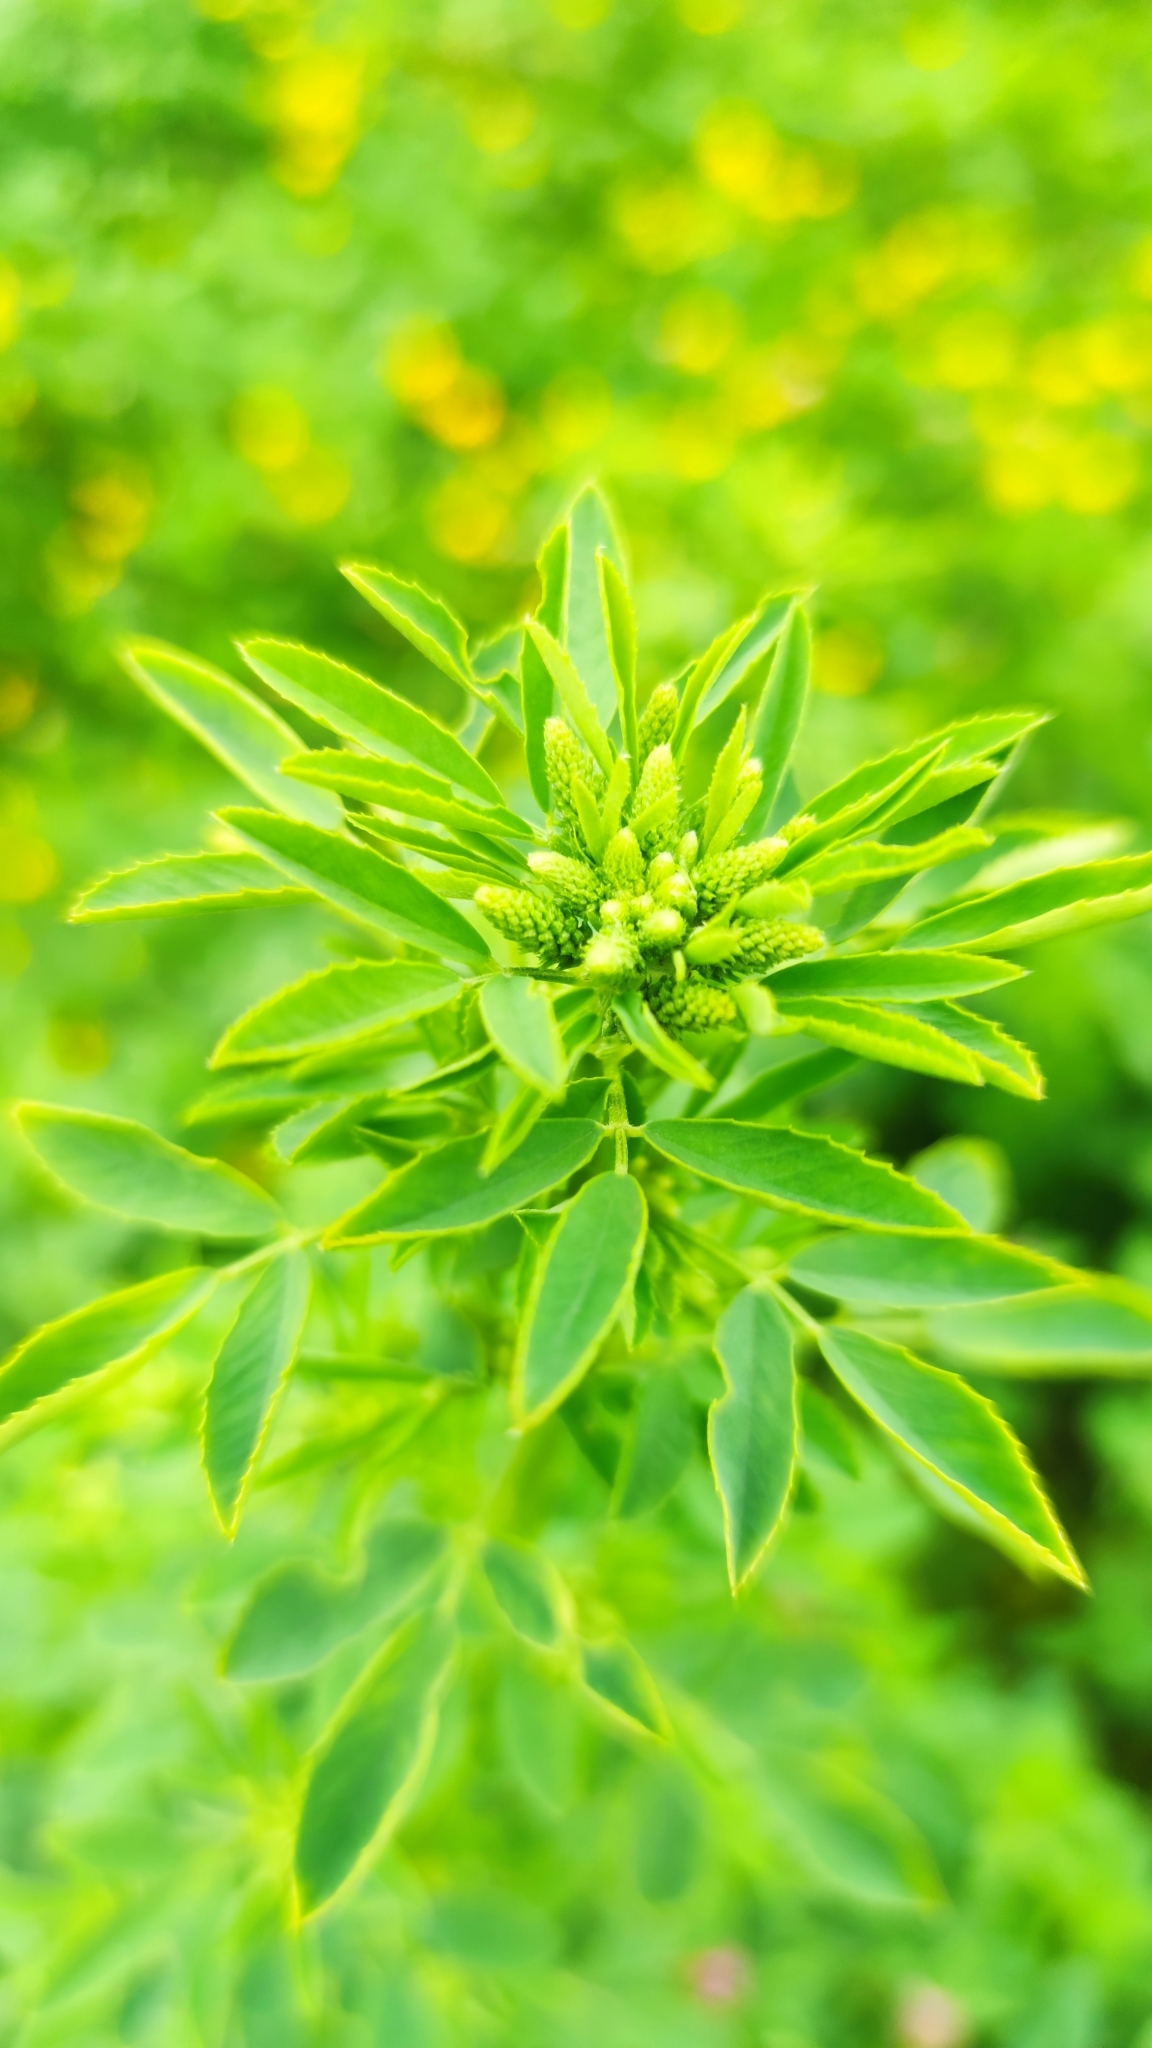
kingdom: Plantae
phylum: Tracheophyta
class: Magnoliopsida
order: Fabales
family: Fabaceae
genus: Melilotus
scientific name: Melilotus albus
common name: White melilot
